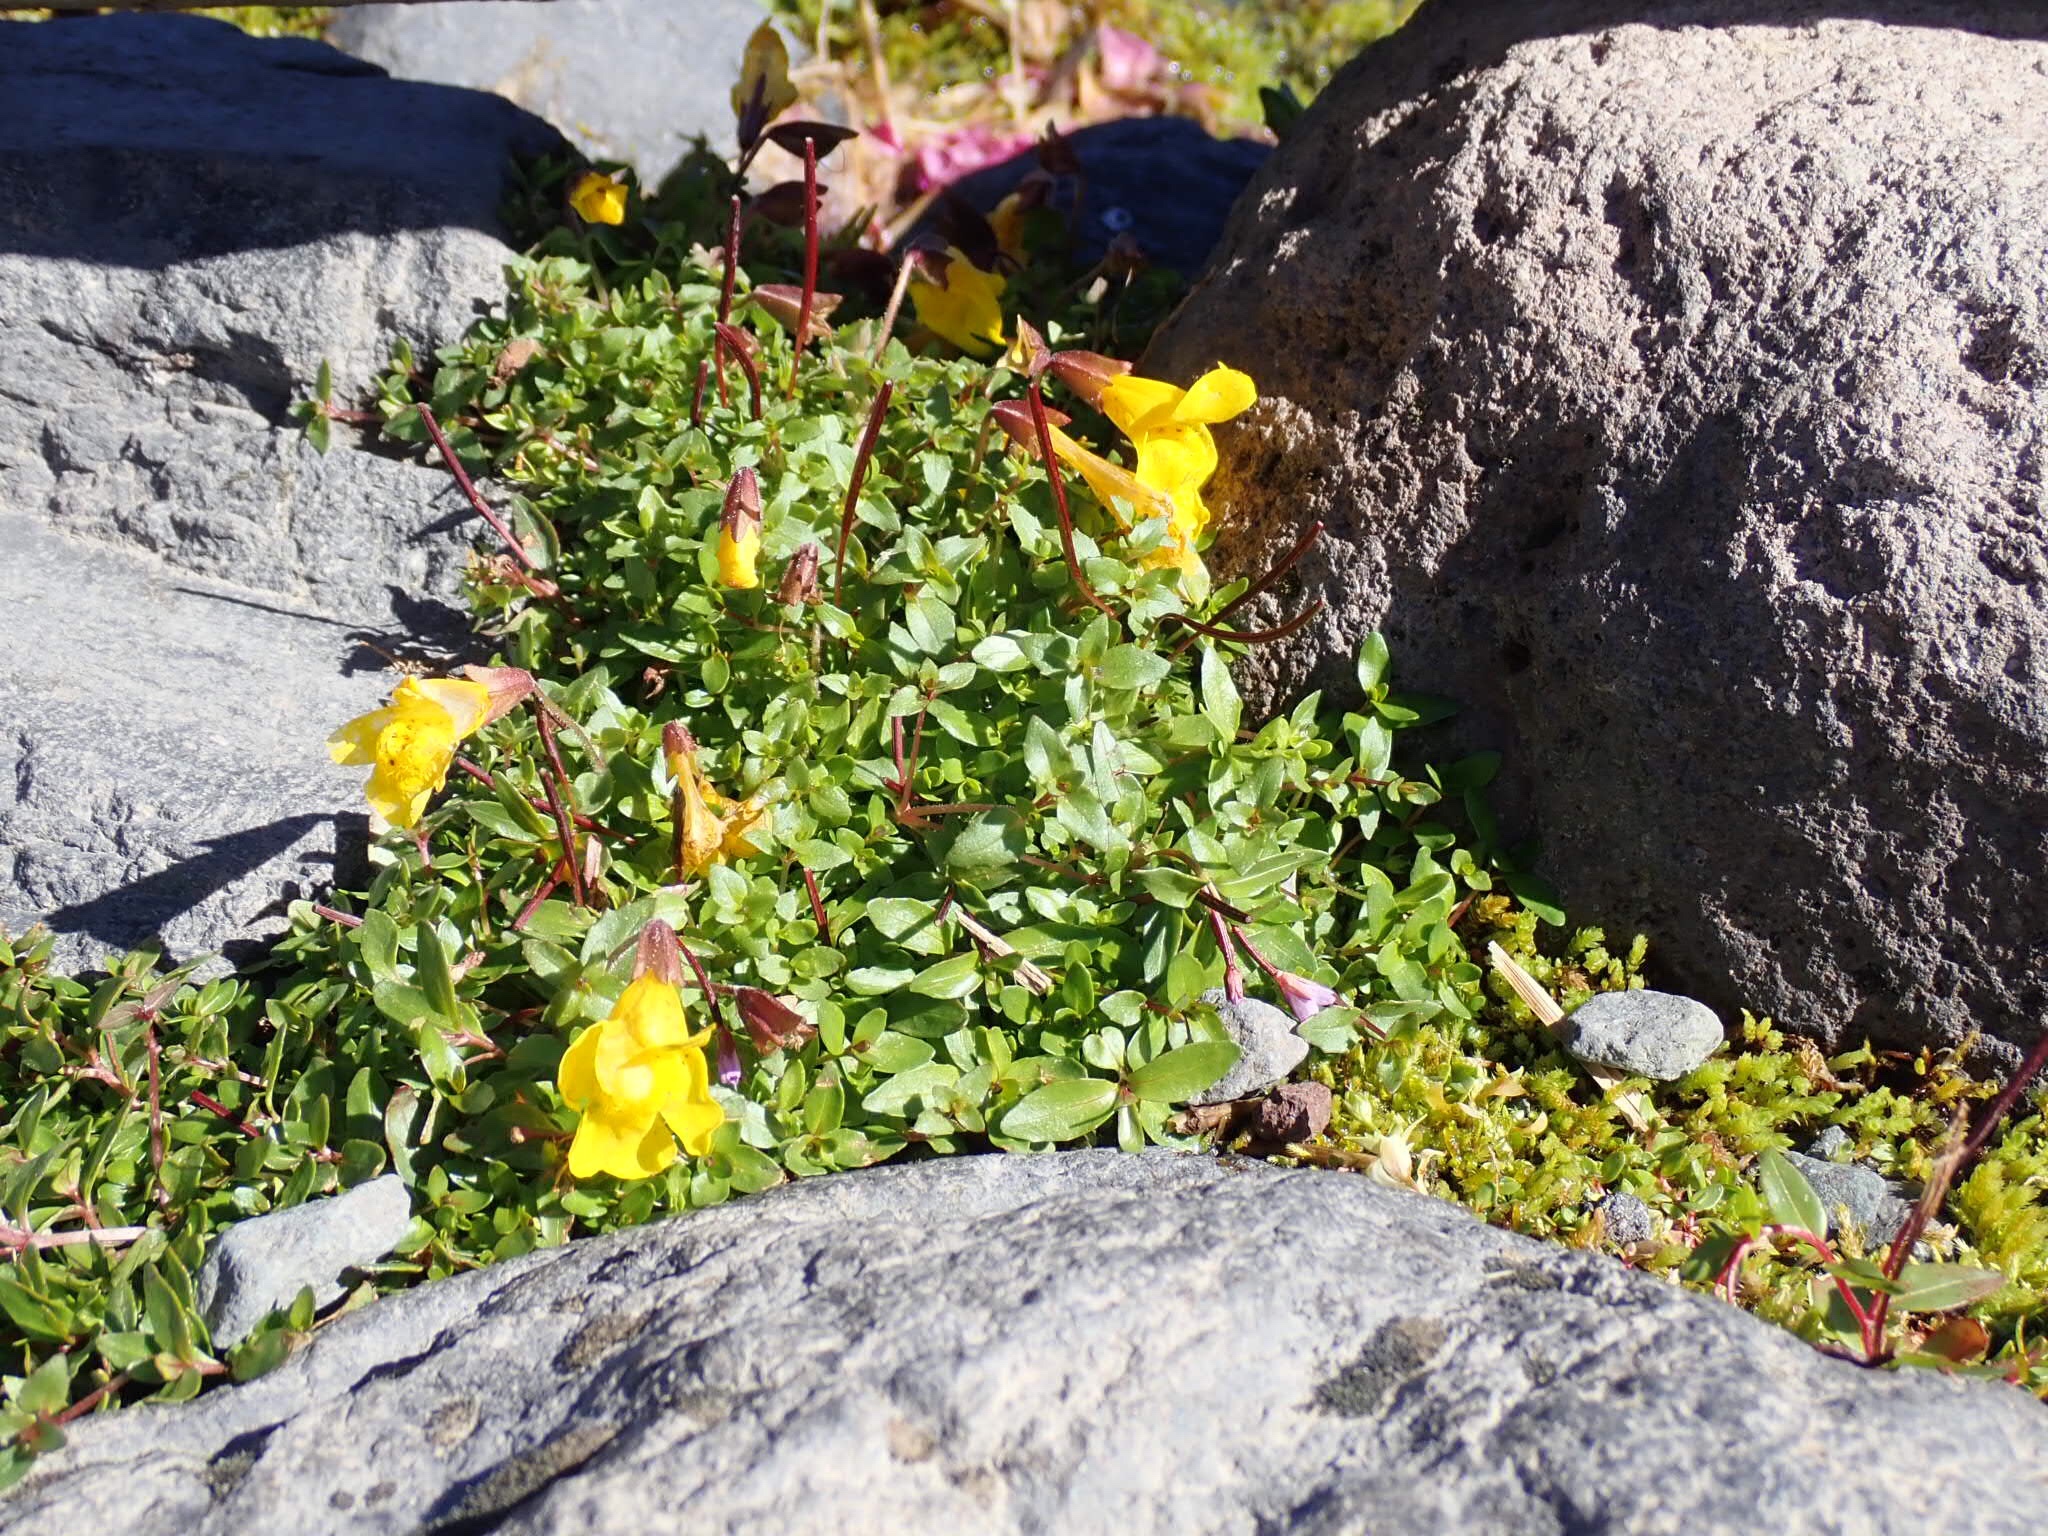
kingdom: Plantae
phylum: Tracheophyta
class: Magnoliopsida
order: Lamiales
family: Phrymaceae
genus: Erythranthe
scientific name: Erythranthe caespitosa
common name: Subalpine monkeyflower
